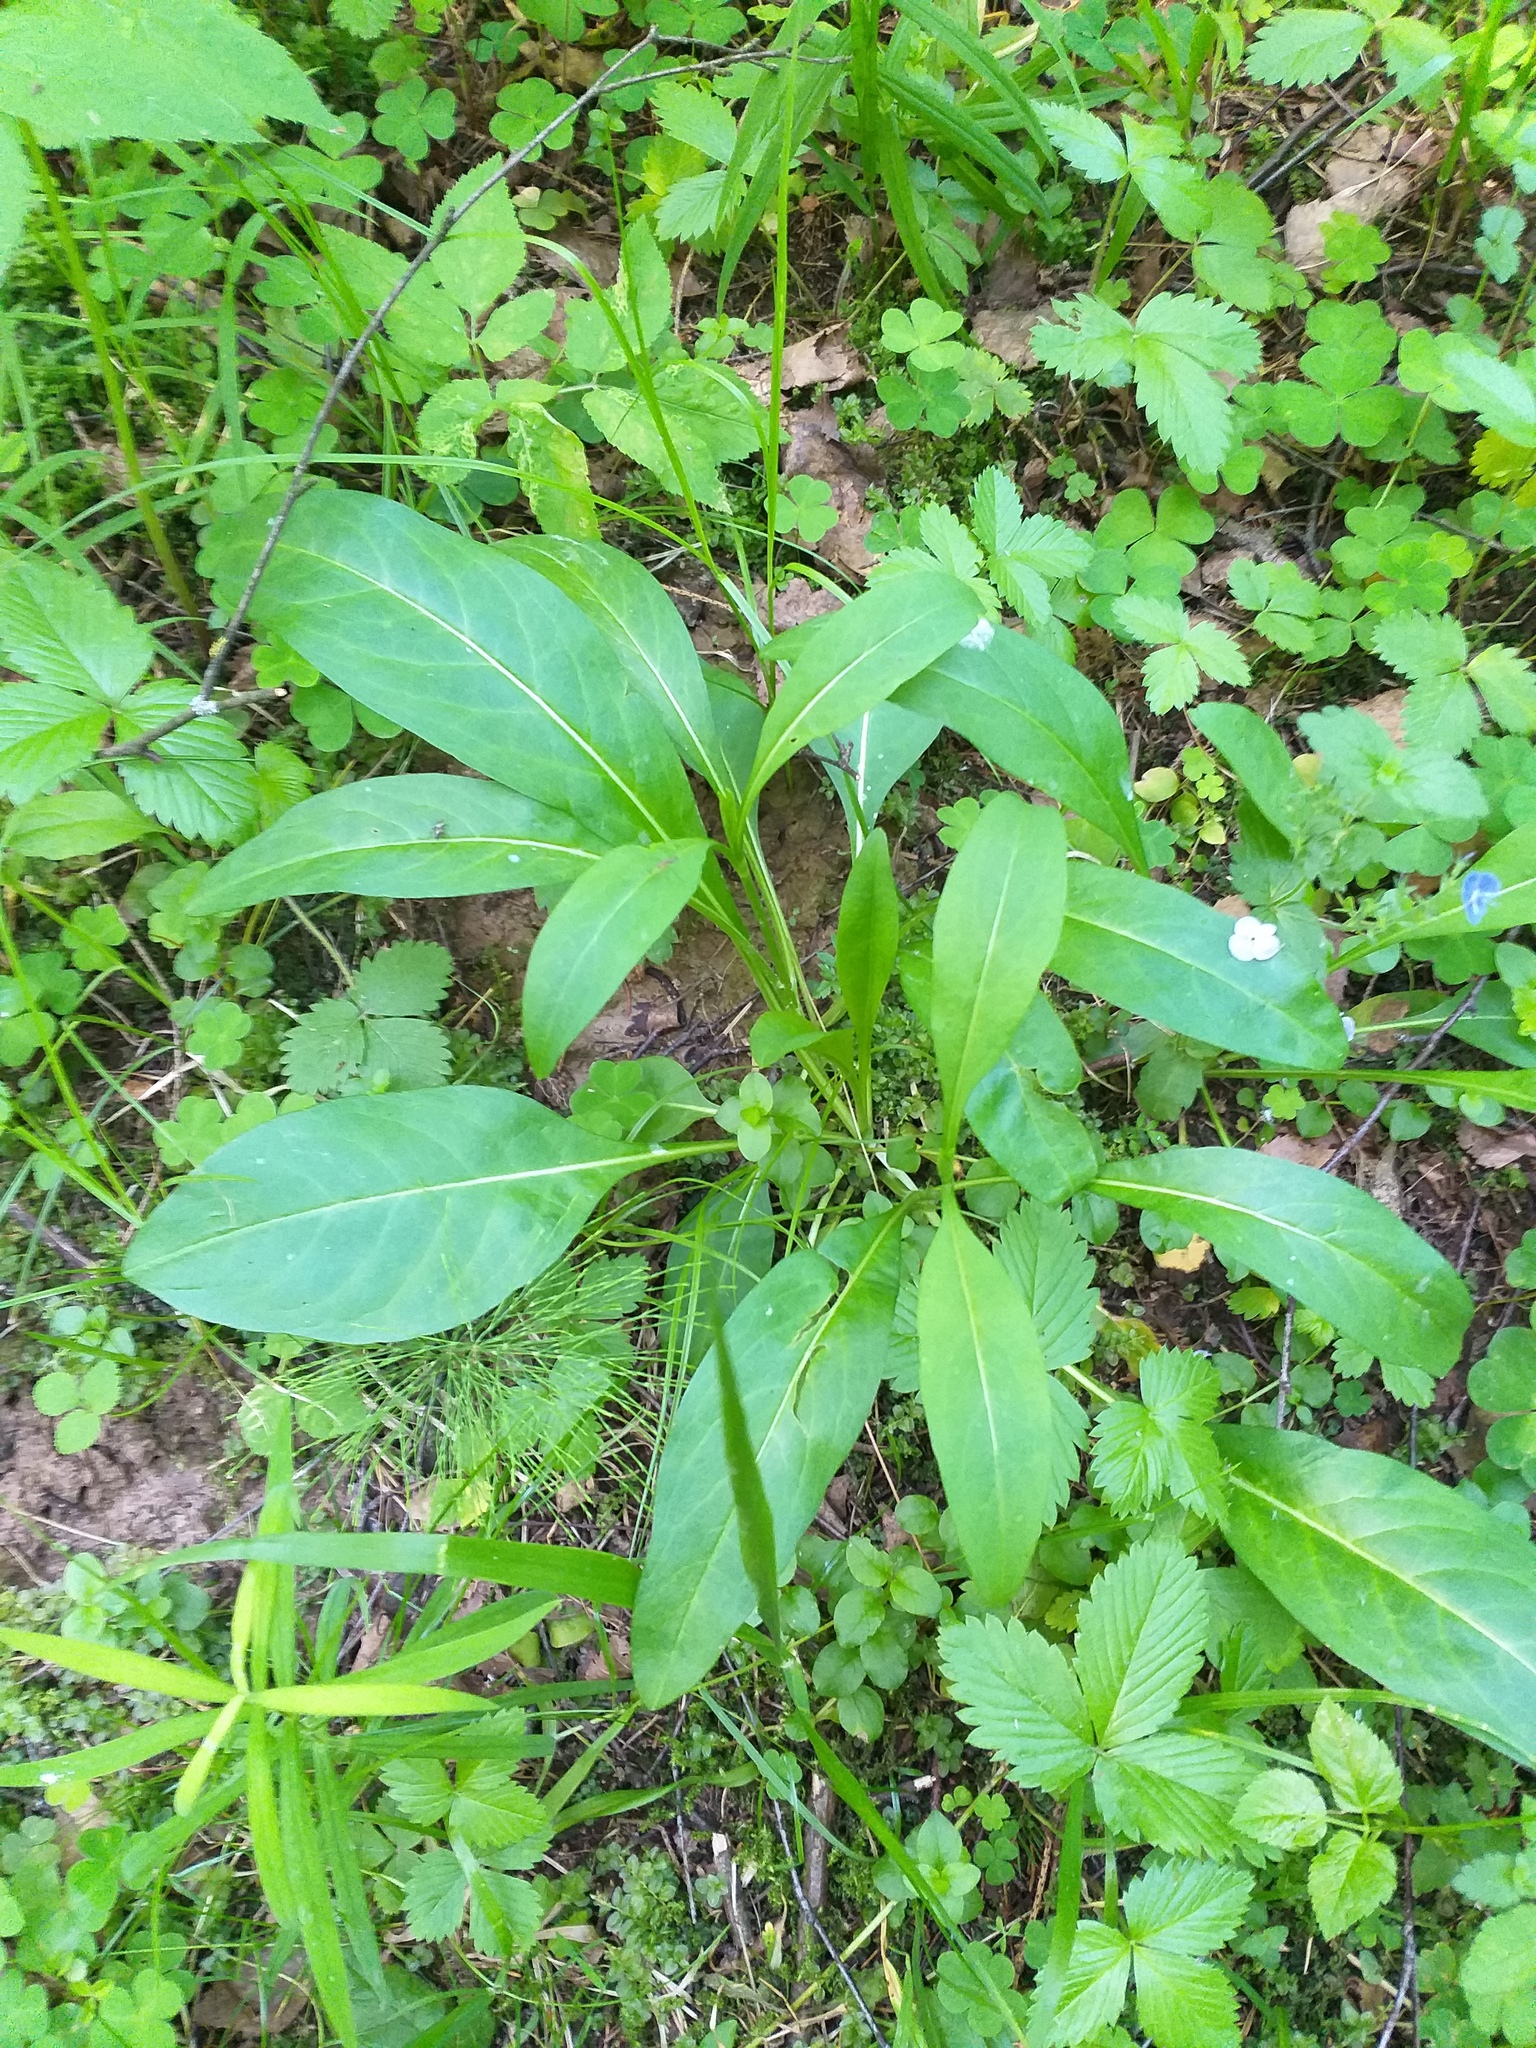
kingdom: Plantae
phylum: Tracheophyta
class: Magnoliopsida
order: Dipsacales
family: Caprifoliaceae
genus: Succisa
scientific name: Succisa pratensis
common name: Devil's-bit
